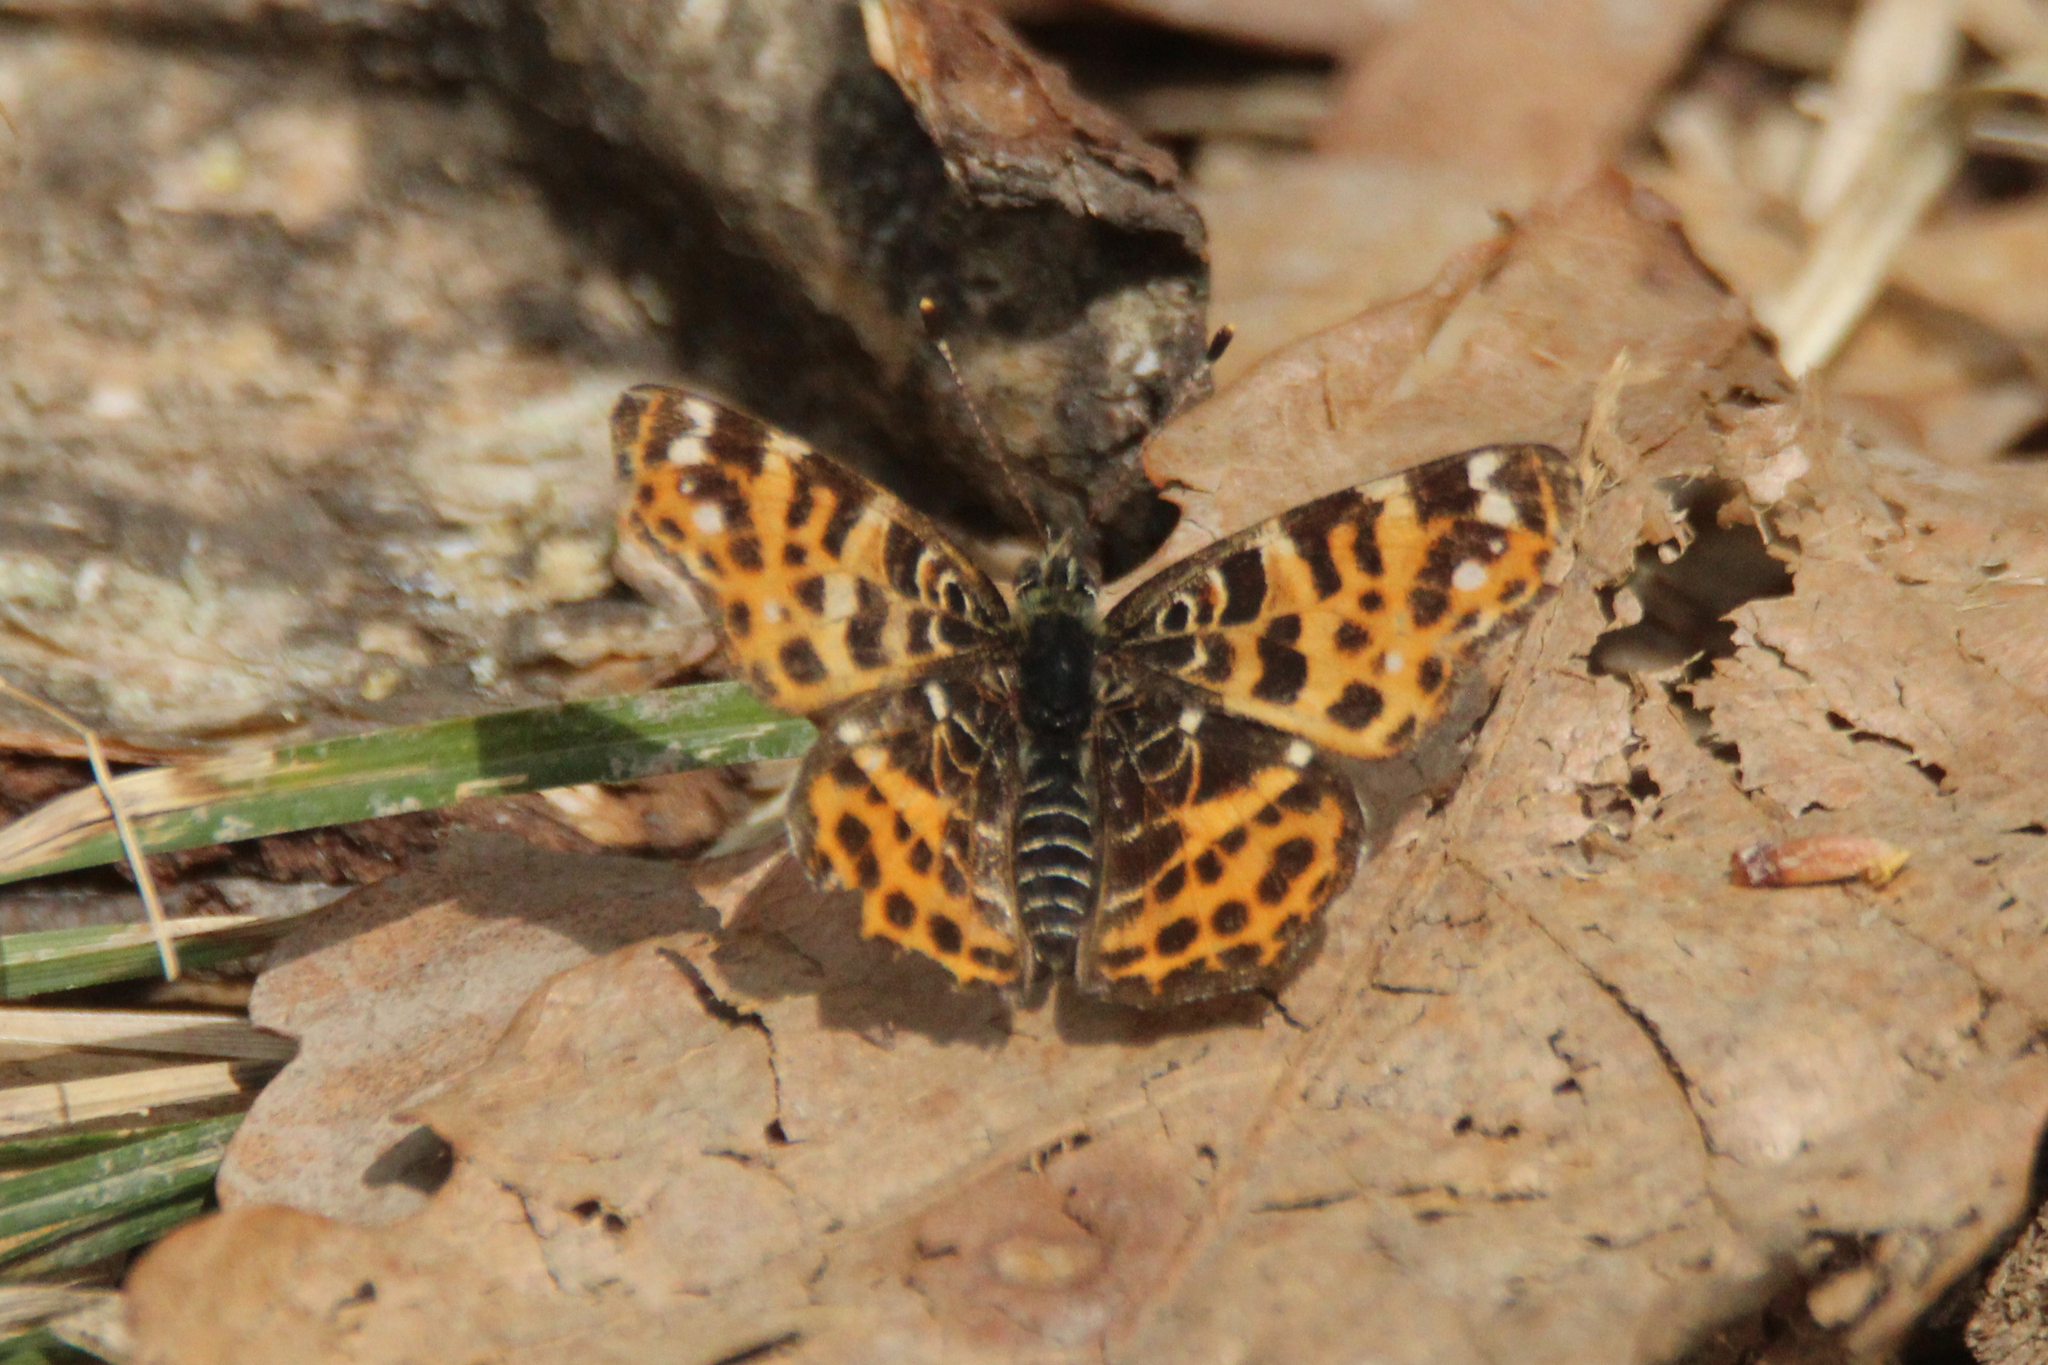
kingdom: Animalia
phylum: Arthropoda
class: Insecta
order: Lepidoptera
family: Nymphalidae
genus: Araschnia
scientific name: Araschnia levana
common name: Map butterfly
